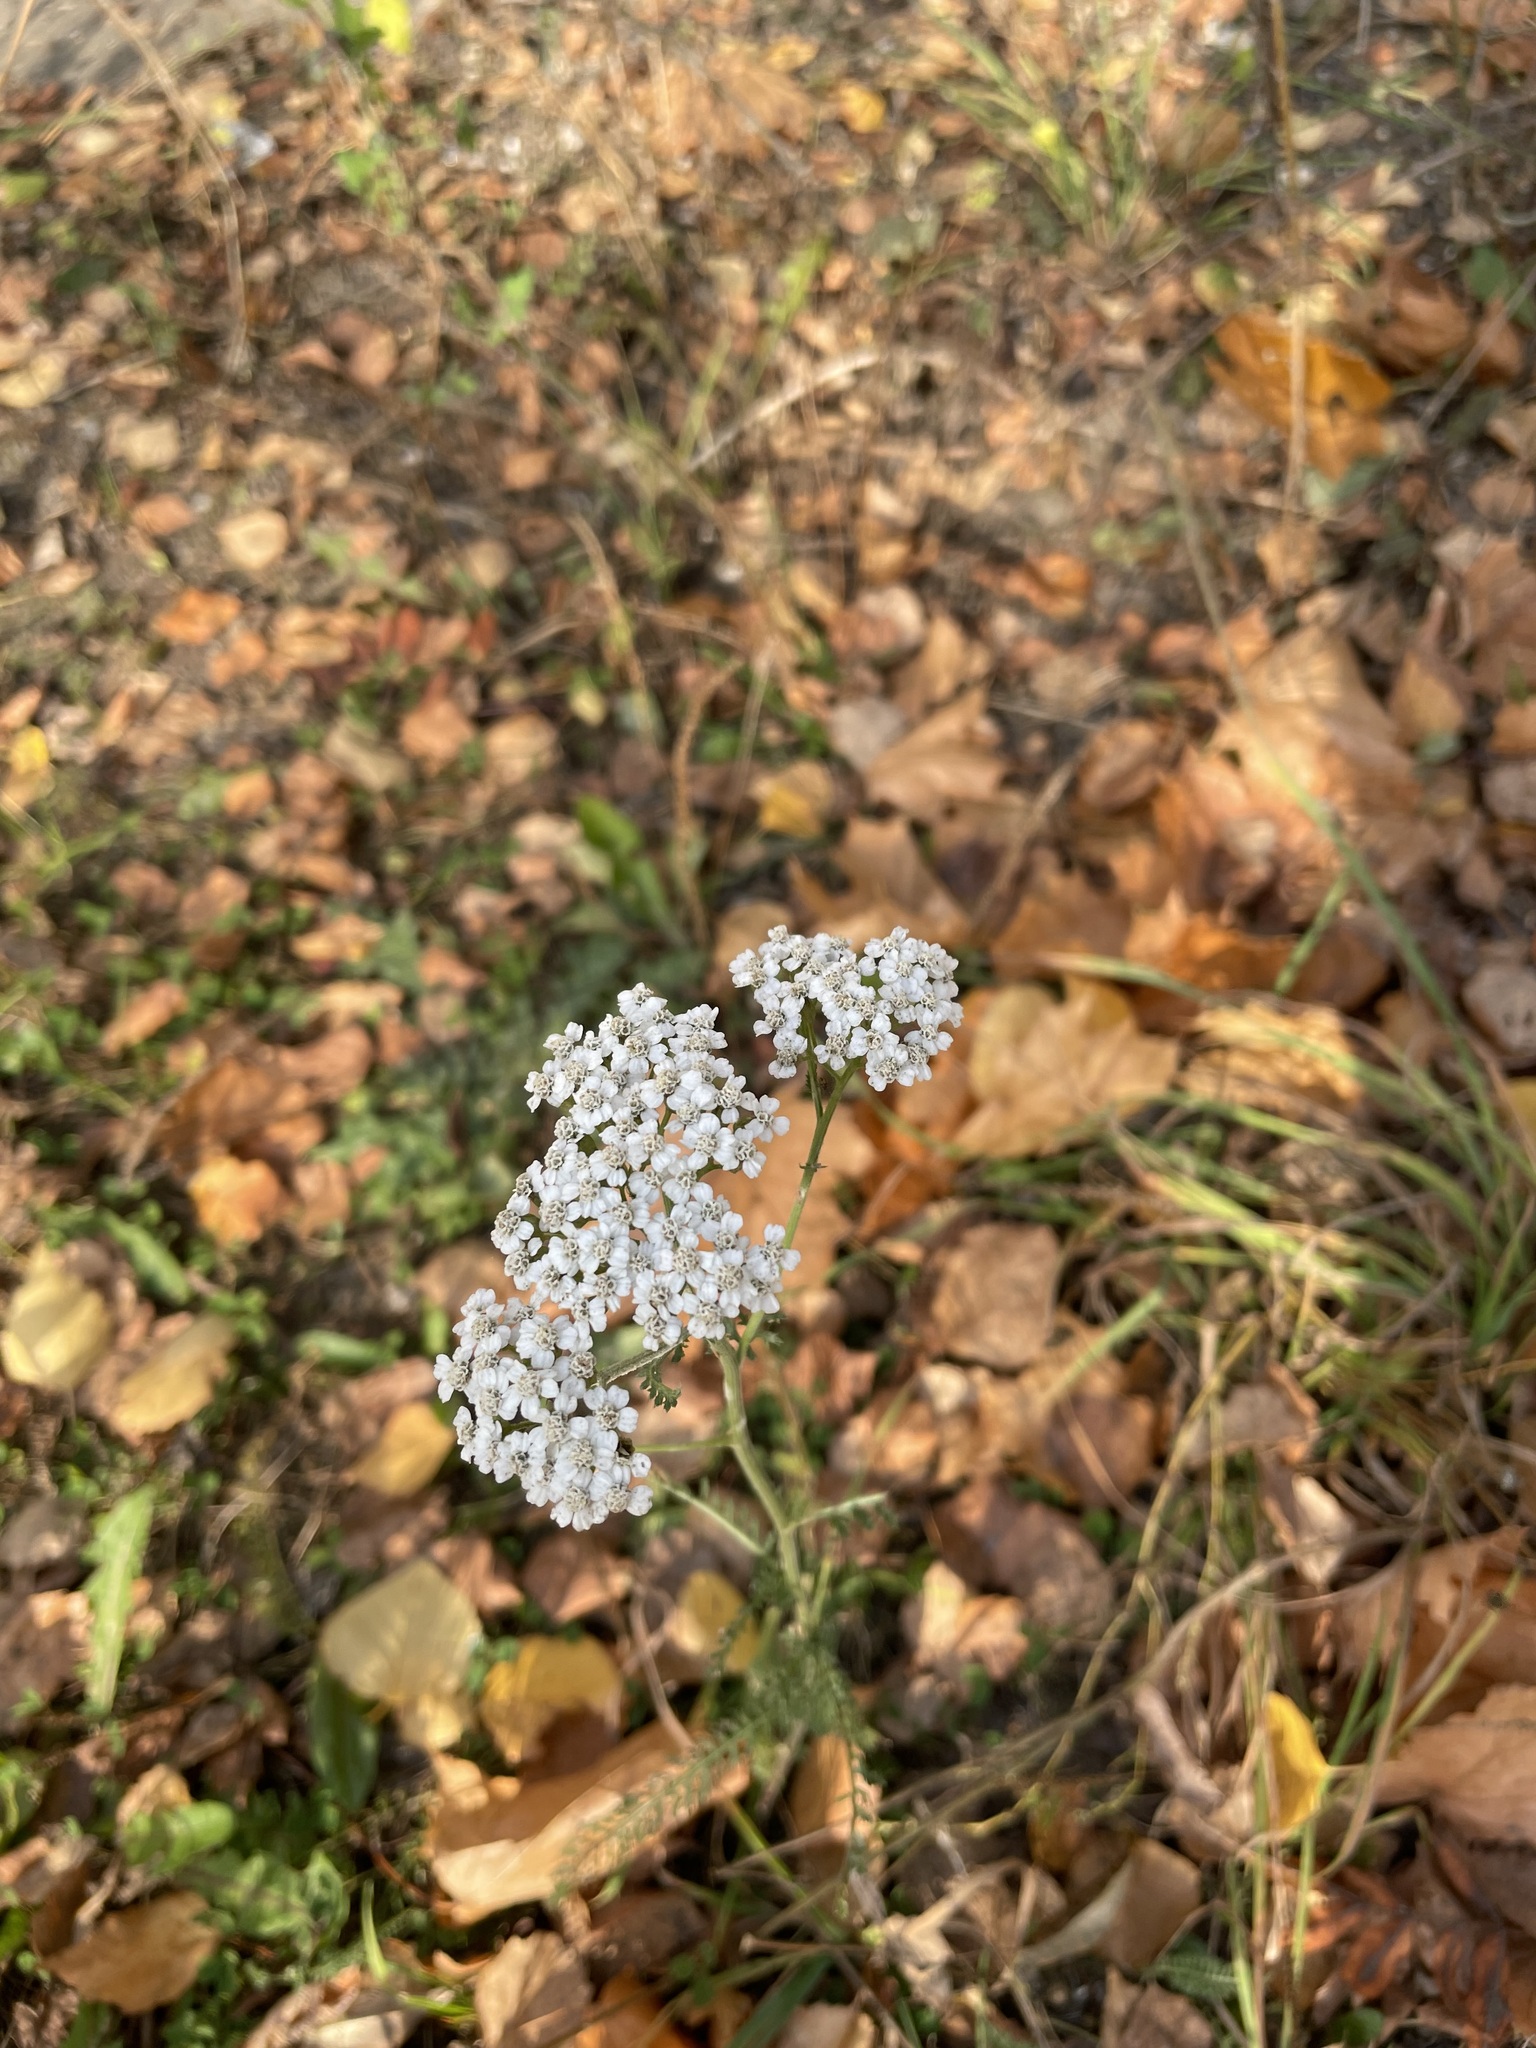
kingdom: Plantae
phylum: Tracheophyta
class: Magnoliopsida
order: Asterales
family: Asteraceae
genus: Achillea
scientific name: Achillea millefolium
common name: Yarrow
